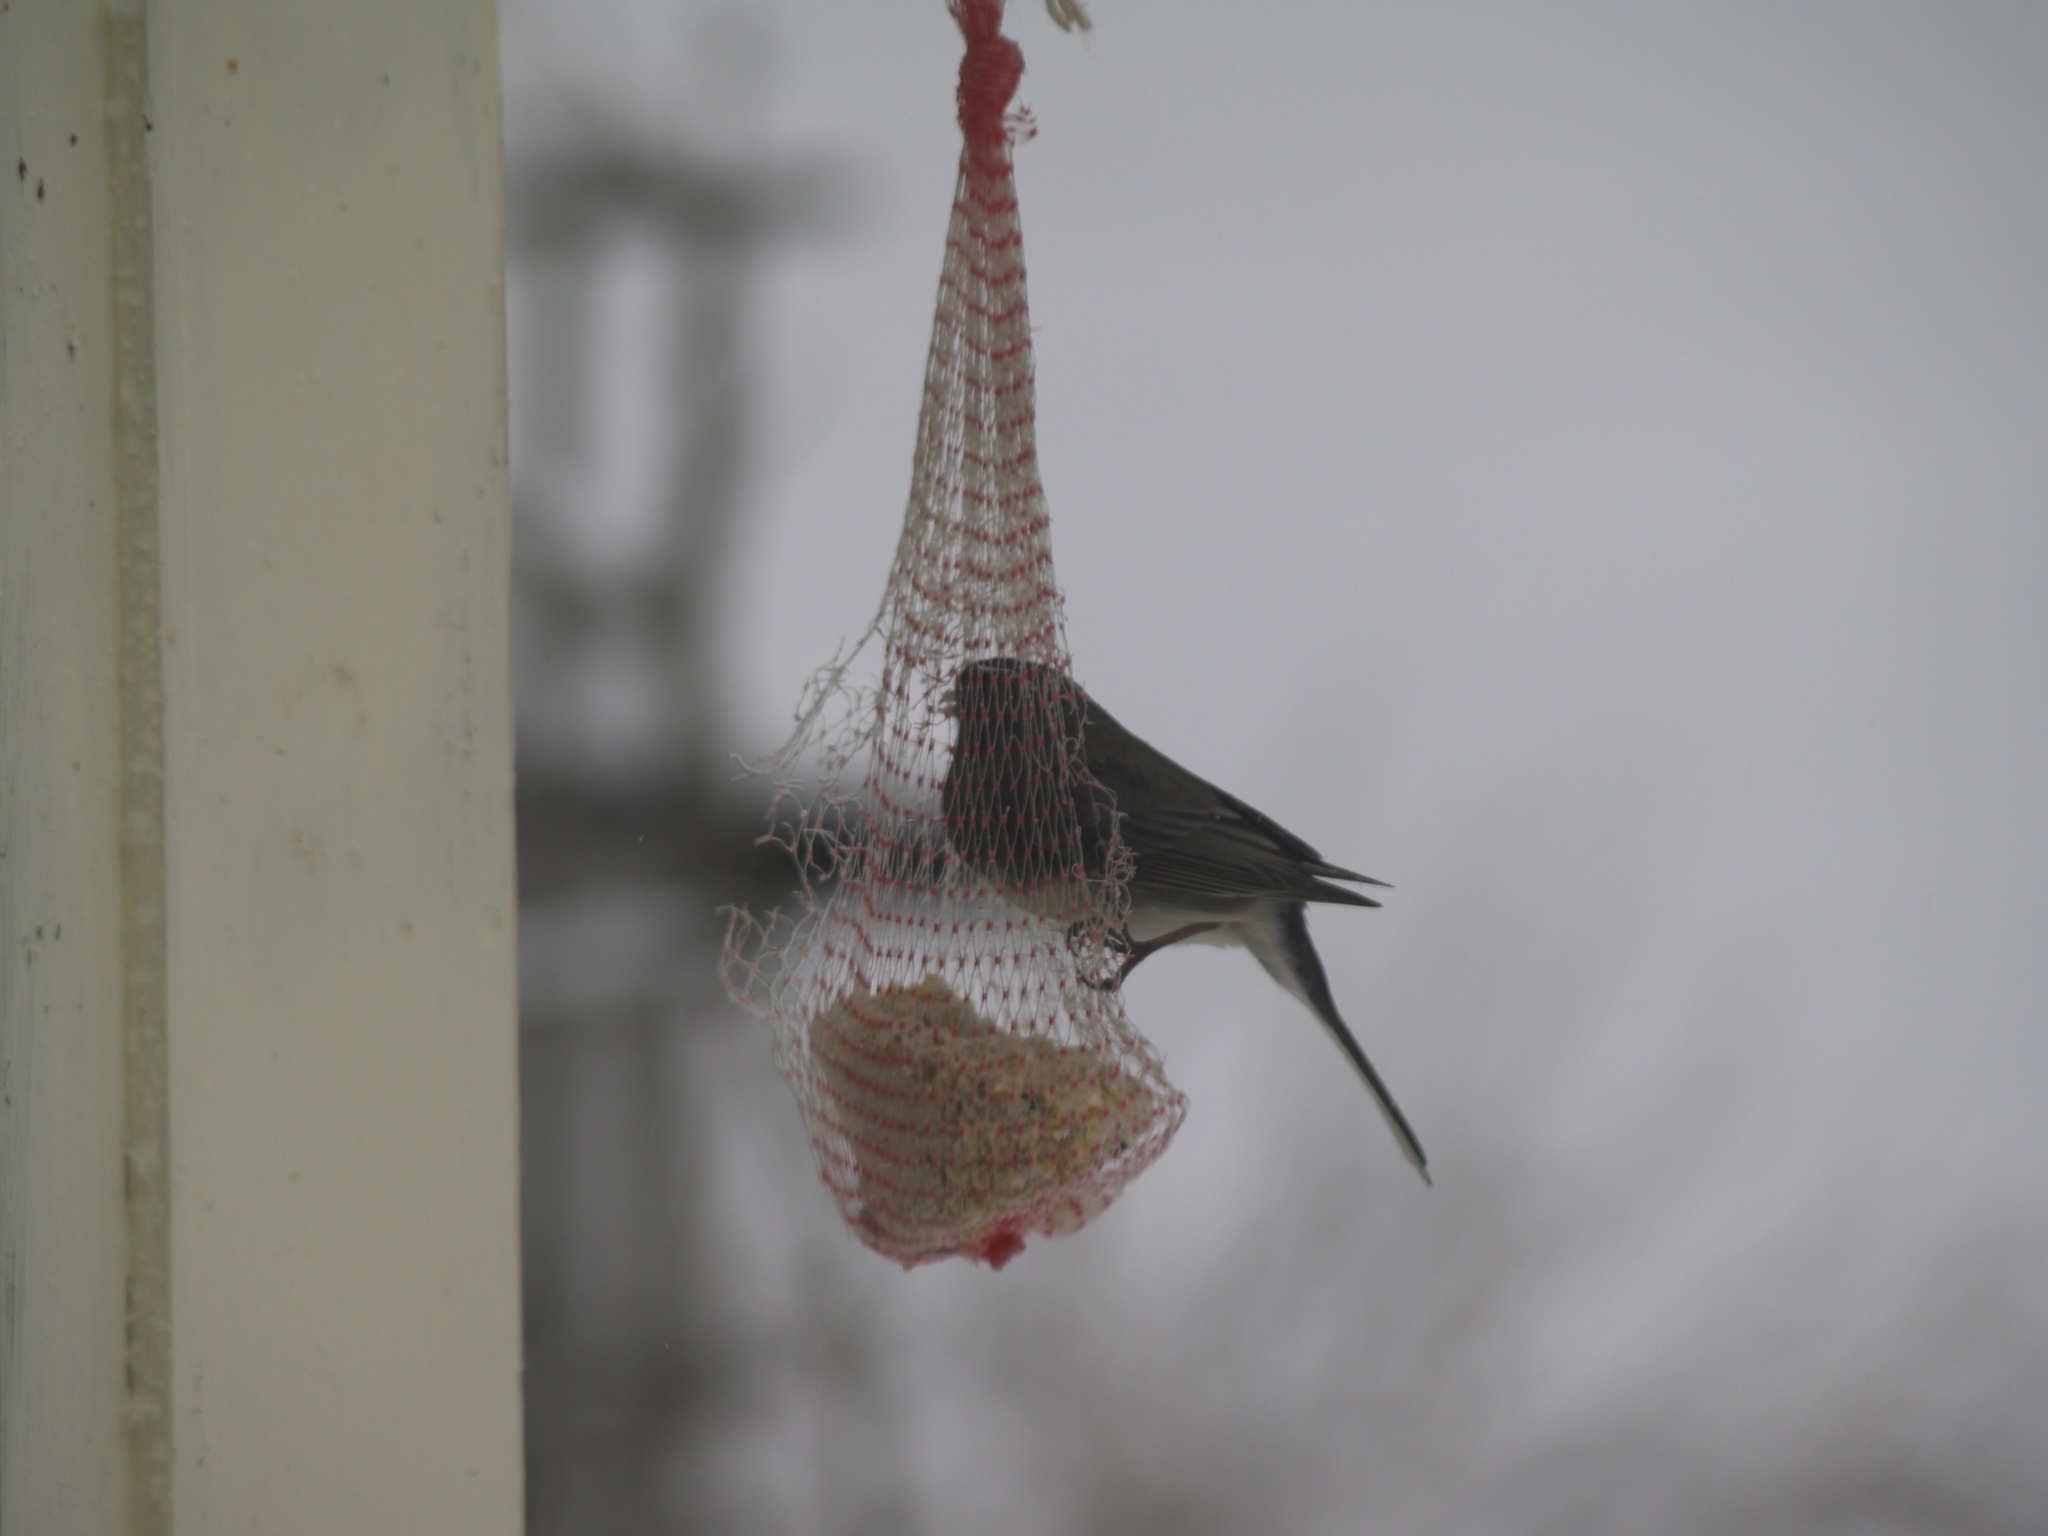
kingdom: Animalia
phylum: Chordata
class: Aves
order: Passeriformes
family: Passerellidae
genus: Junco
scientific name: Junco hyemalis
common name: Dark-eyed junco
